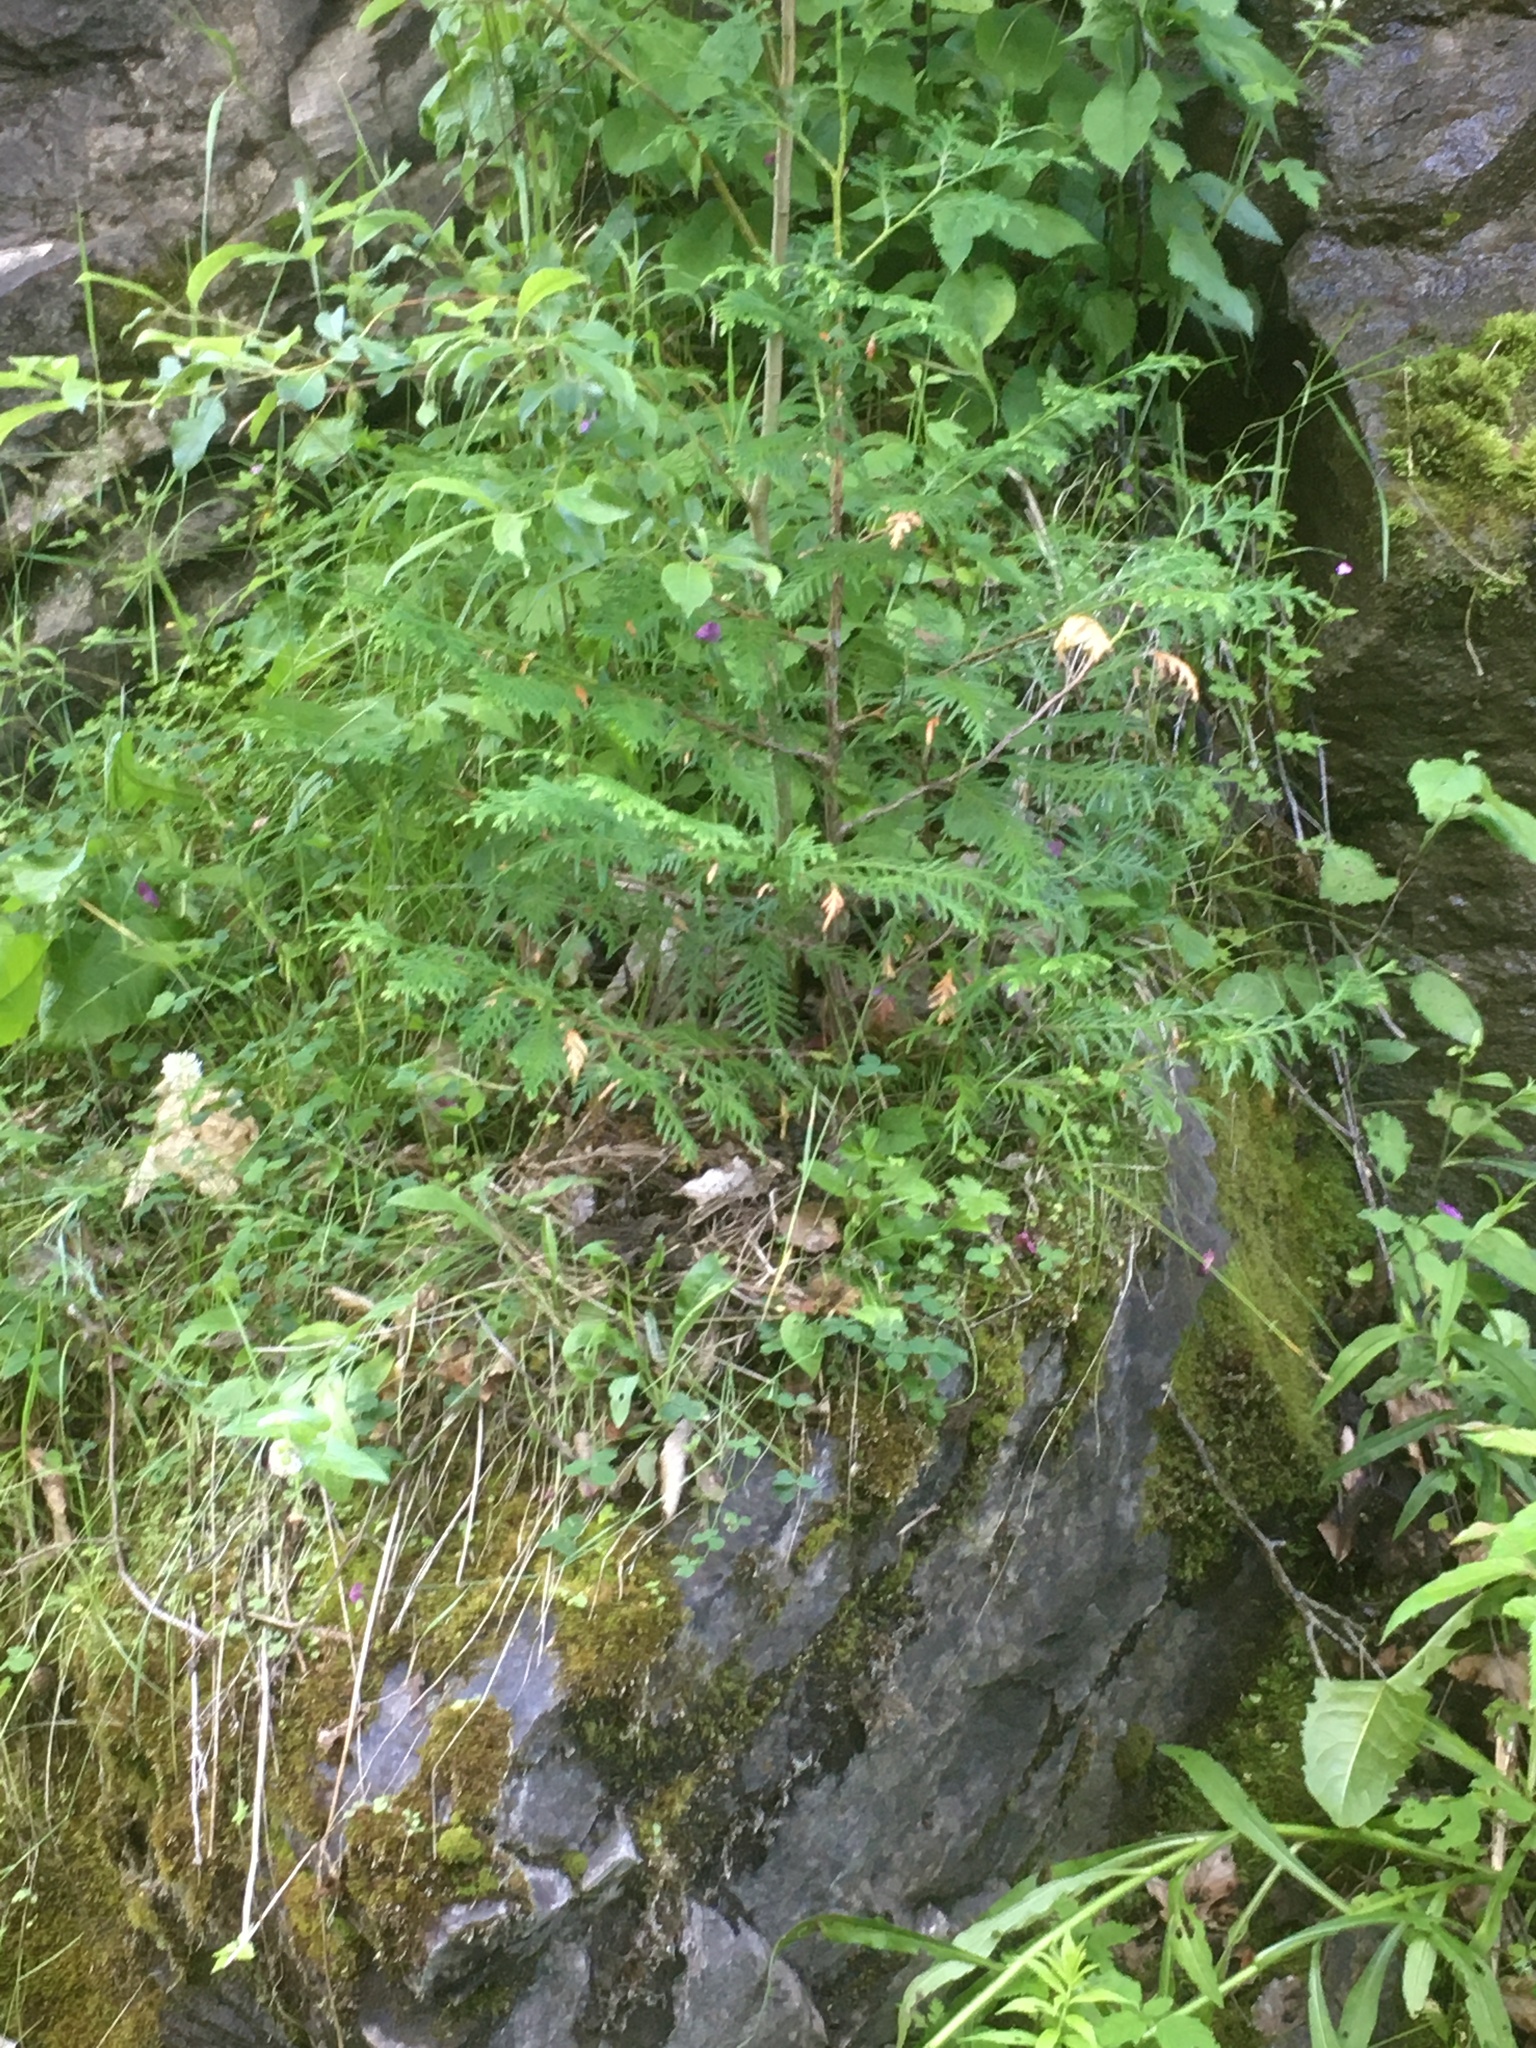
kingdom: Plantae
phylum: Tracheophyta
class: Pinopsida
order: Pinales
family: Cupressaceae
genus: Thuja
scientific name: Thuja occidentalis
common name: Northern white-cedar
